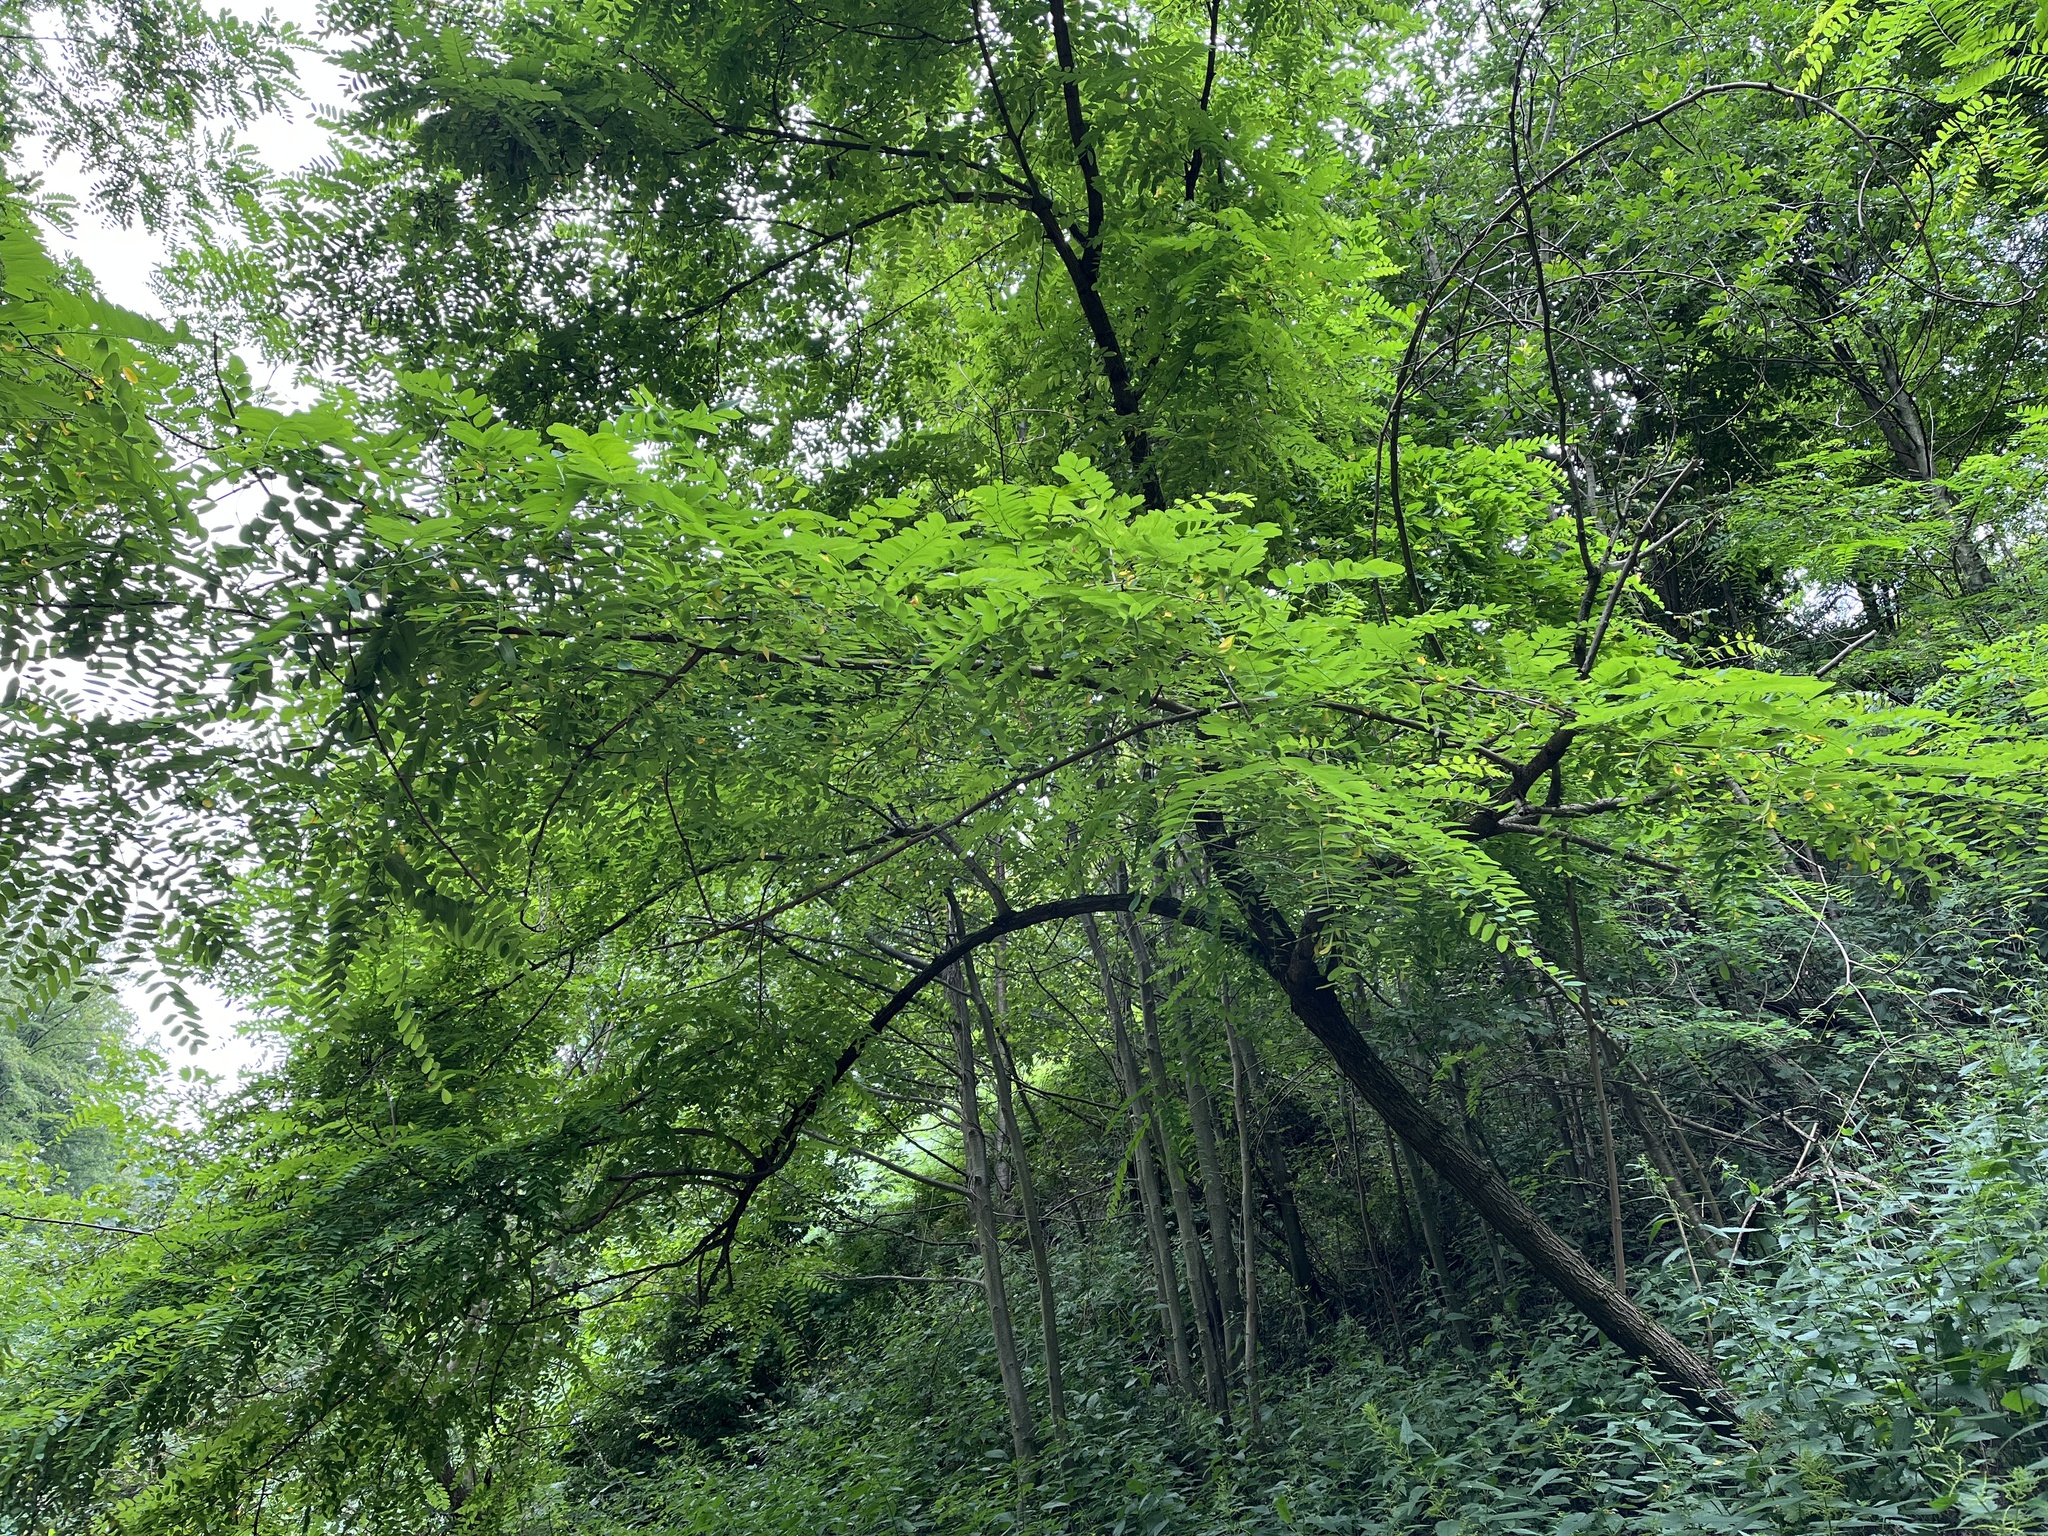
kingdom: Plantae
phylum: Tracheophyta
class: Magnoliopsida
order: Fabales
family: Fabaceae
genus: Robinia
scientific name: Robinia pseudoacacia
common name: Black locust
